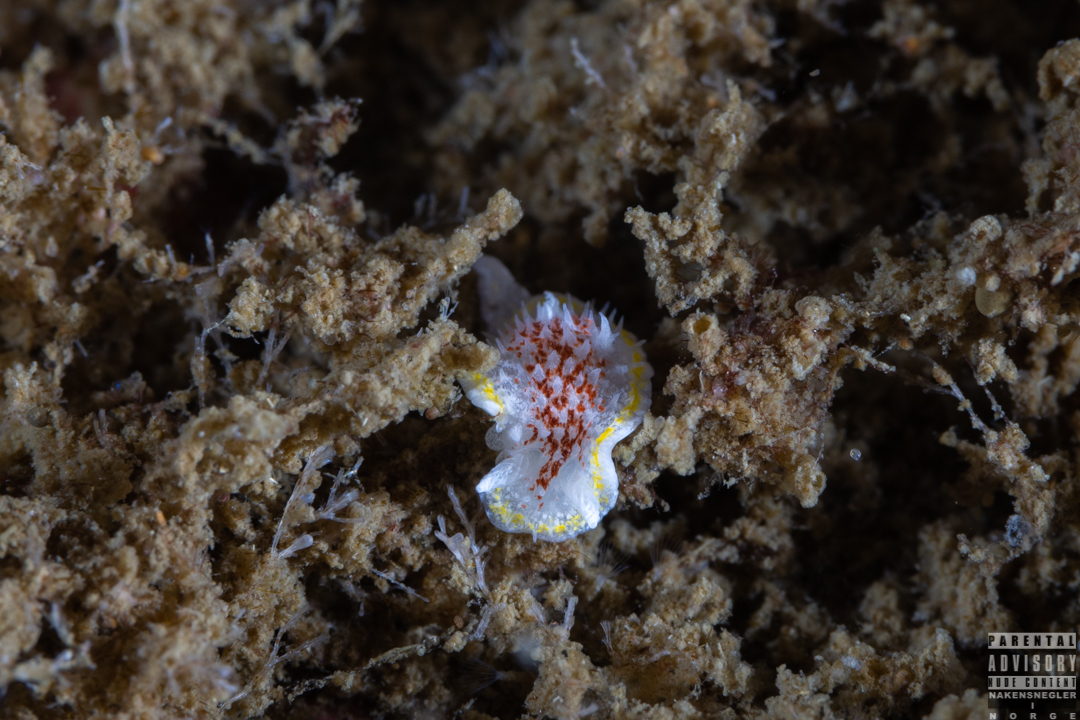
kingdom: Animalia
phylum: Mollusca
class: Gastropoda
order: Nudibranchia
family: Calycidorididae
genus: Diaphorodoris
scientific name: Diaphorodoris luteocincta
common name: Fried egg nudibranch
